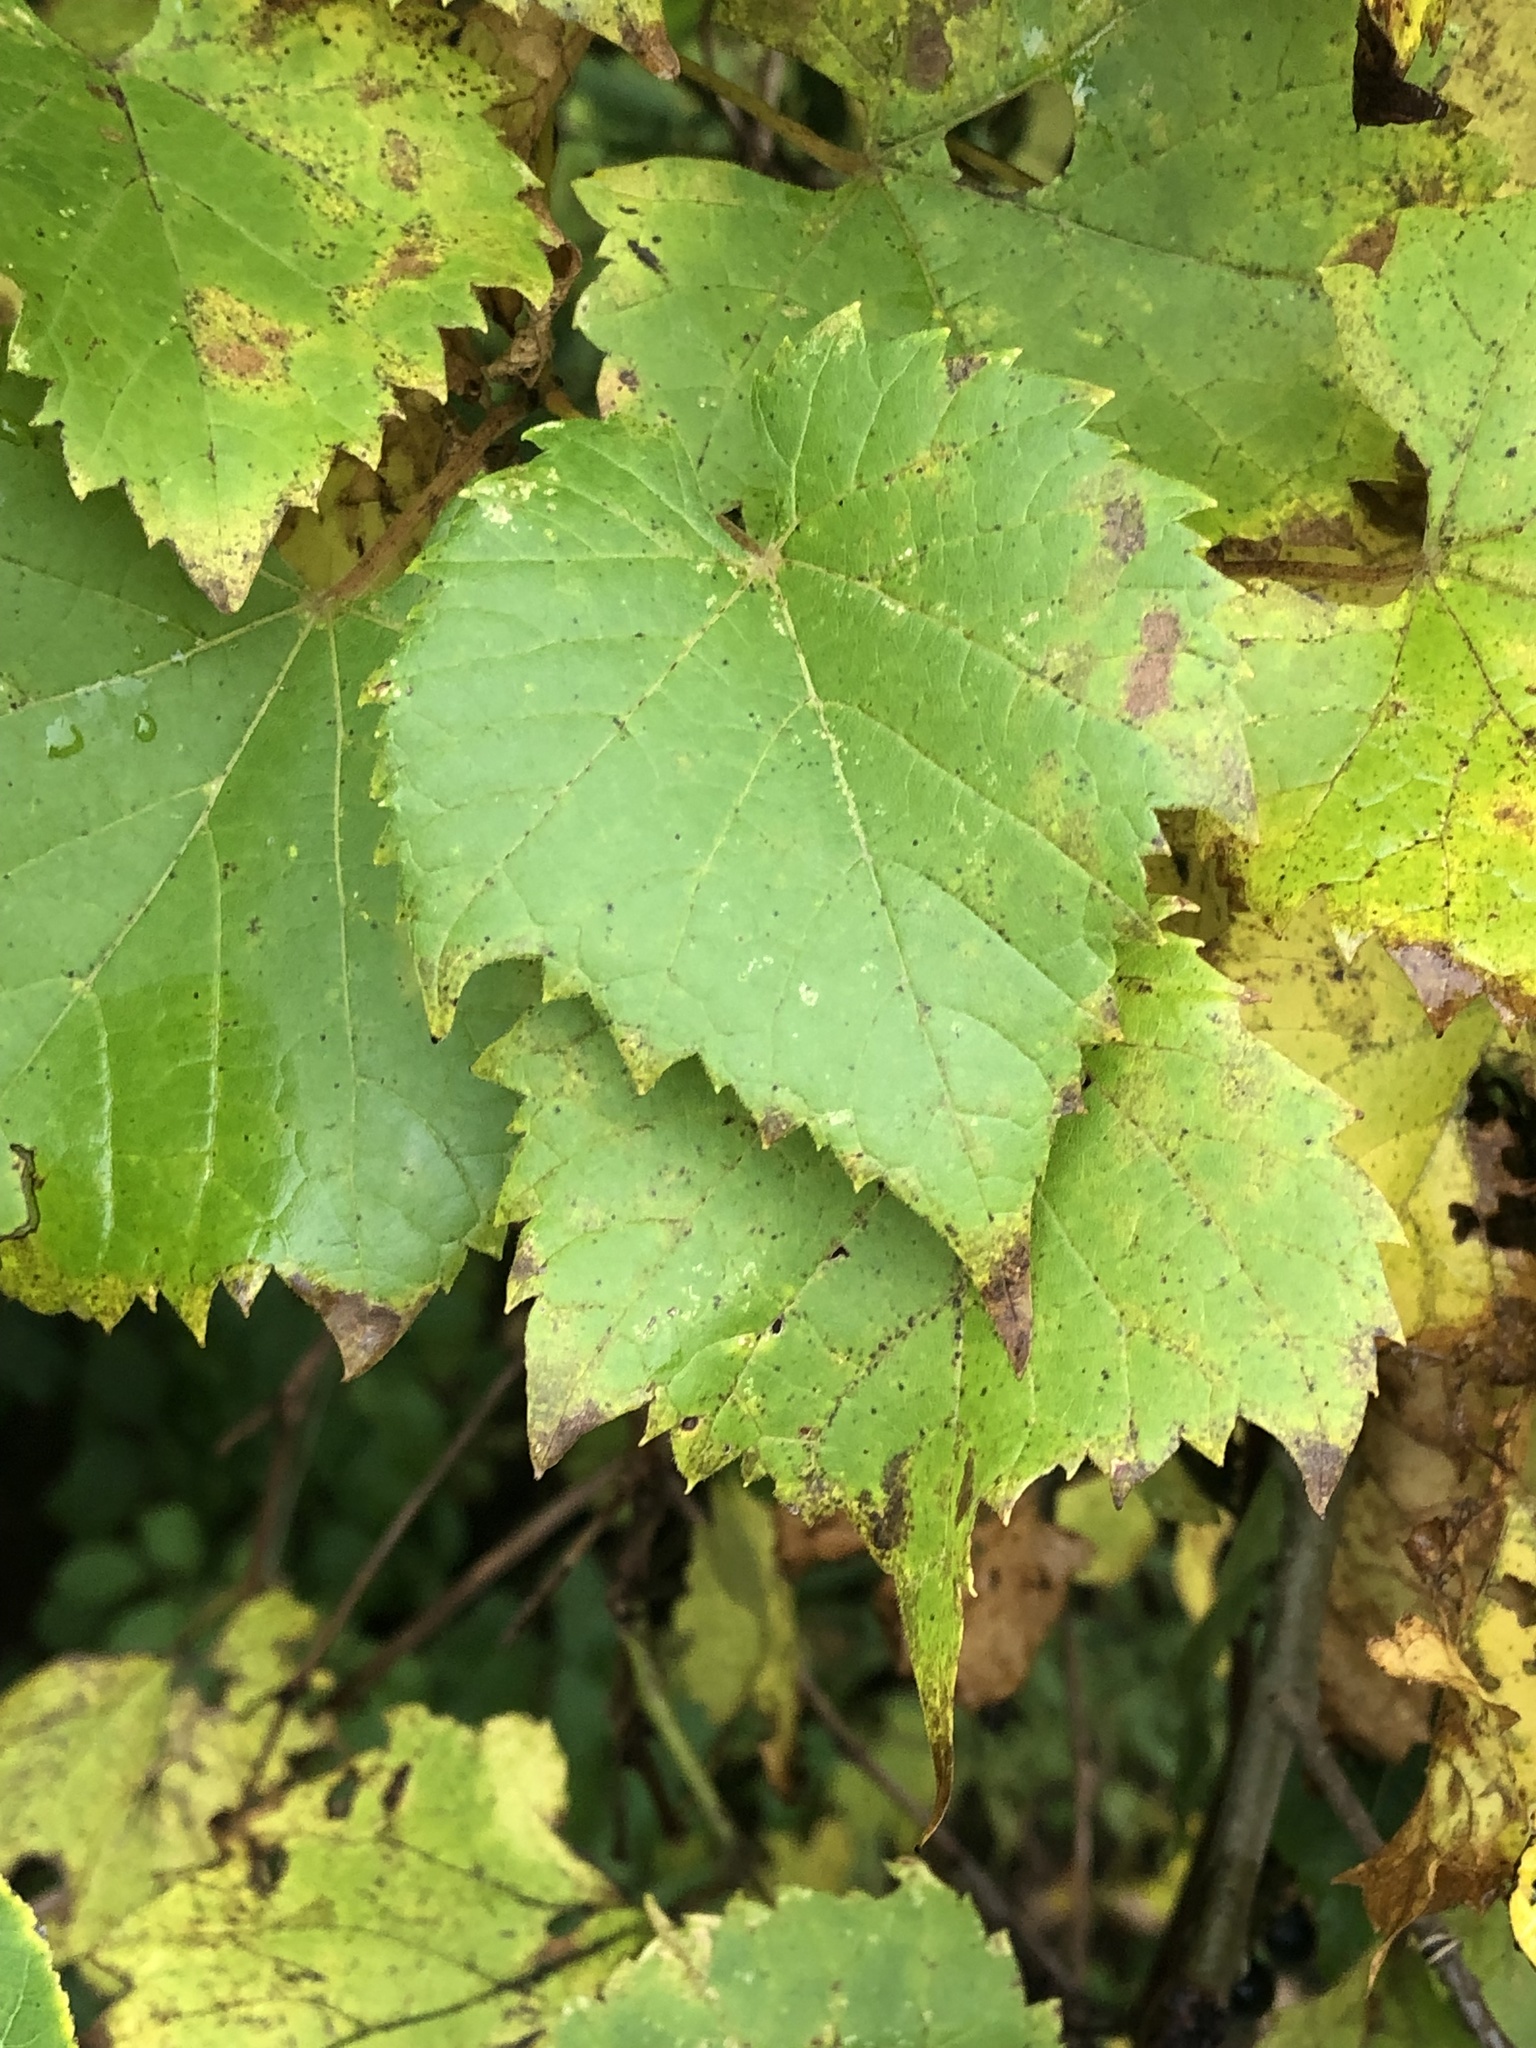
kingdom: Plantae
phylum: Tracheophyta
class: Magnoliopsida
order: Vitales
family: Vitaceae
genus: Vitis
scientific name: Vitis riparia
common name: Frost grape
